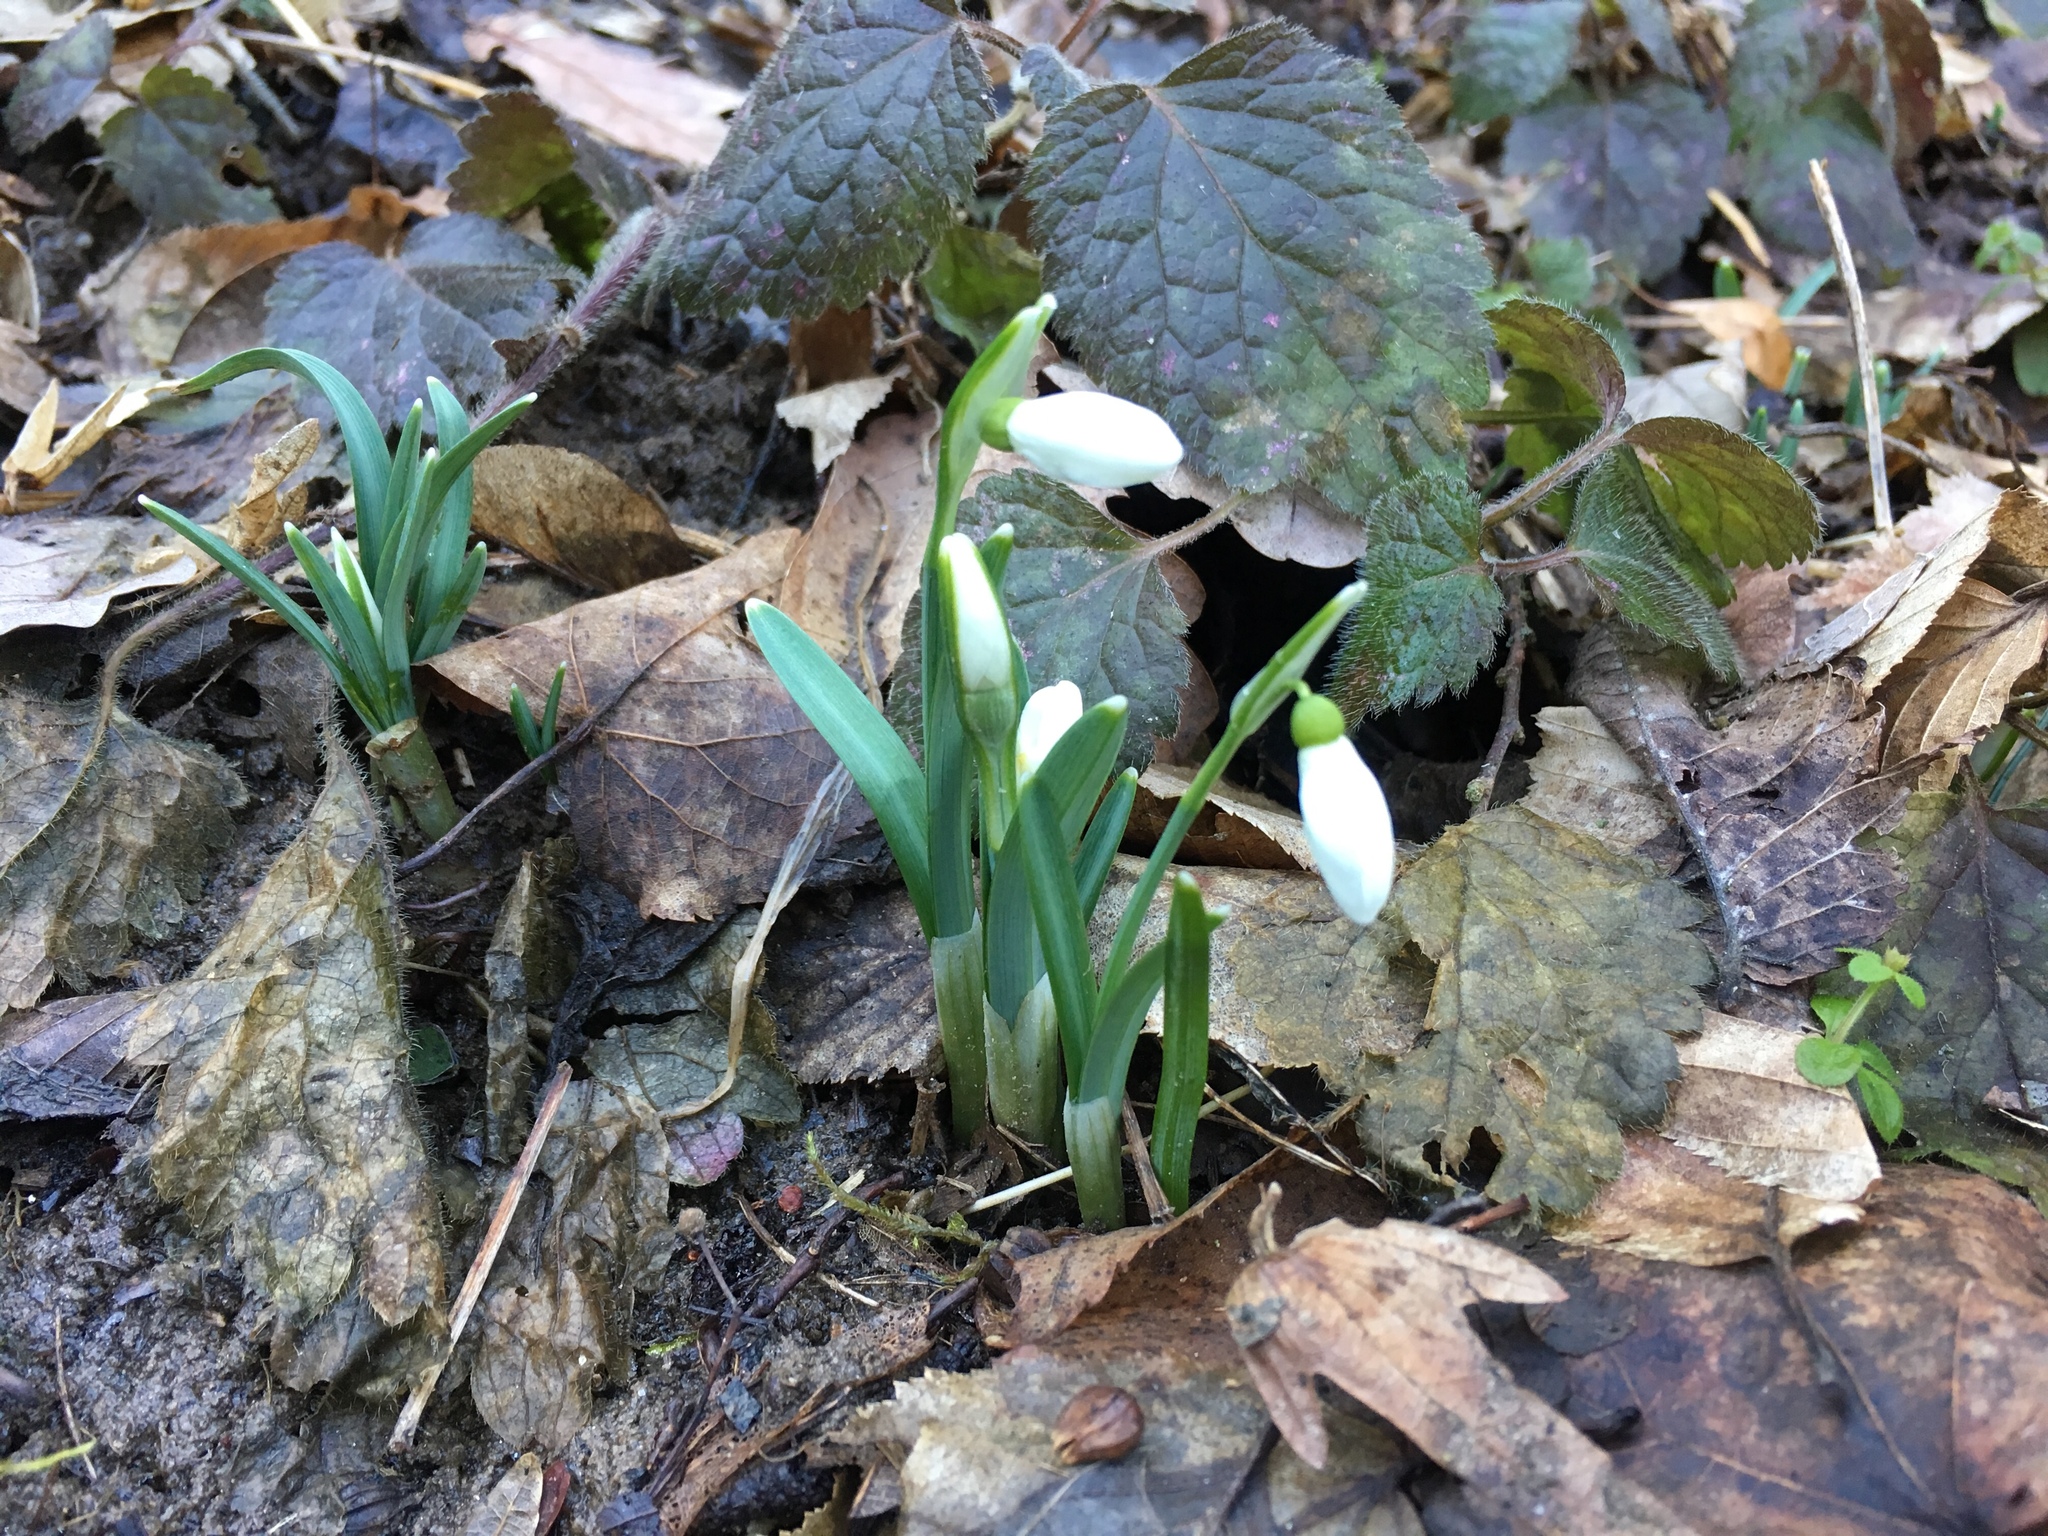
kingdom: Plantae
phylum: Tracheophyta
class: Liliopsida
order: Asparagales
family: Amaryllidaceae
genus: Galanthus
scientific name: Galanthus nivalis
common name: Snowdrop
